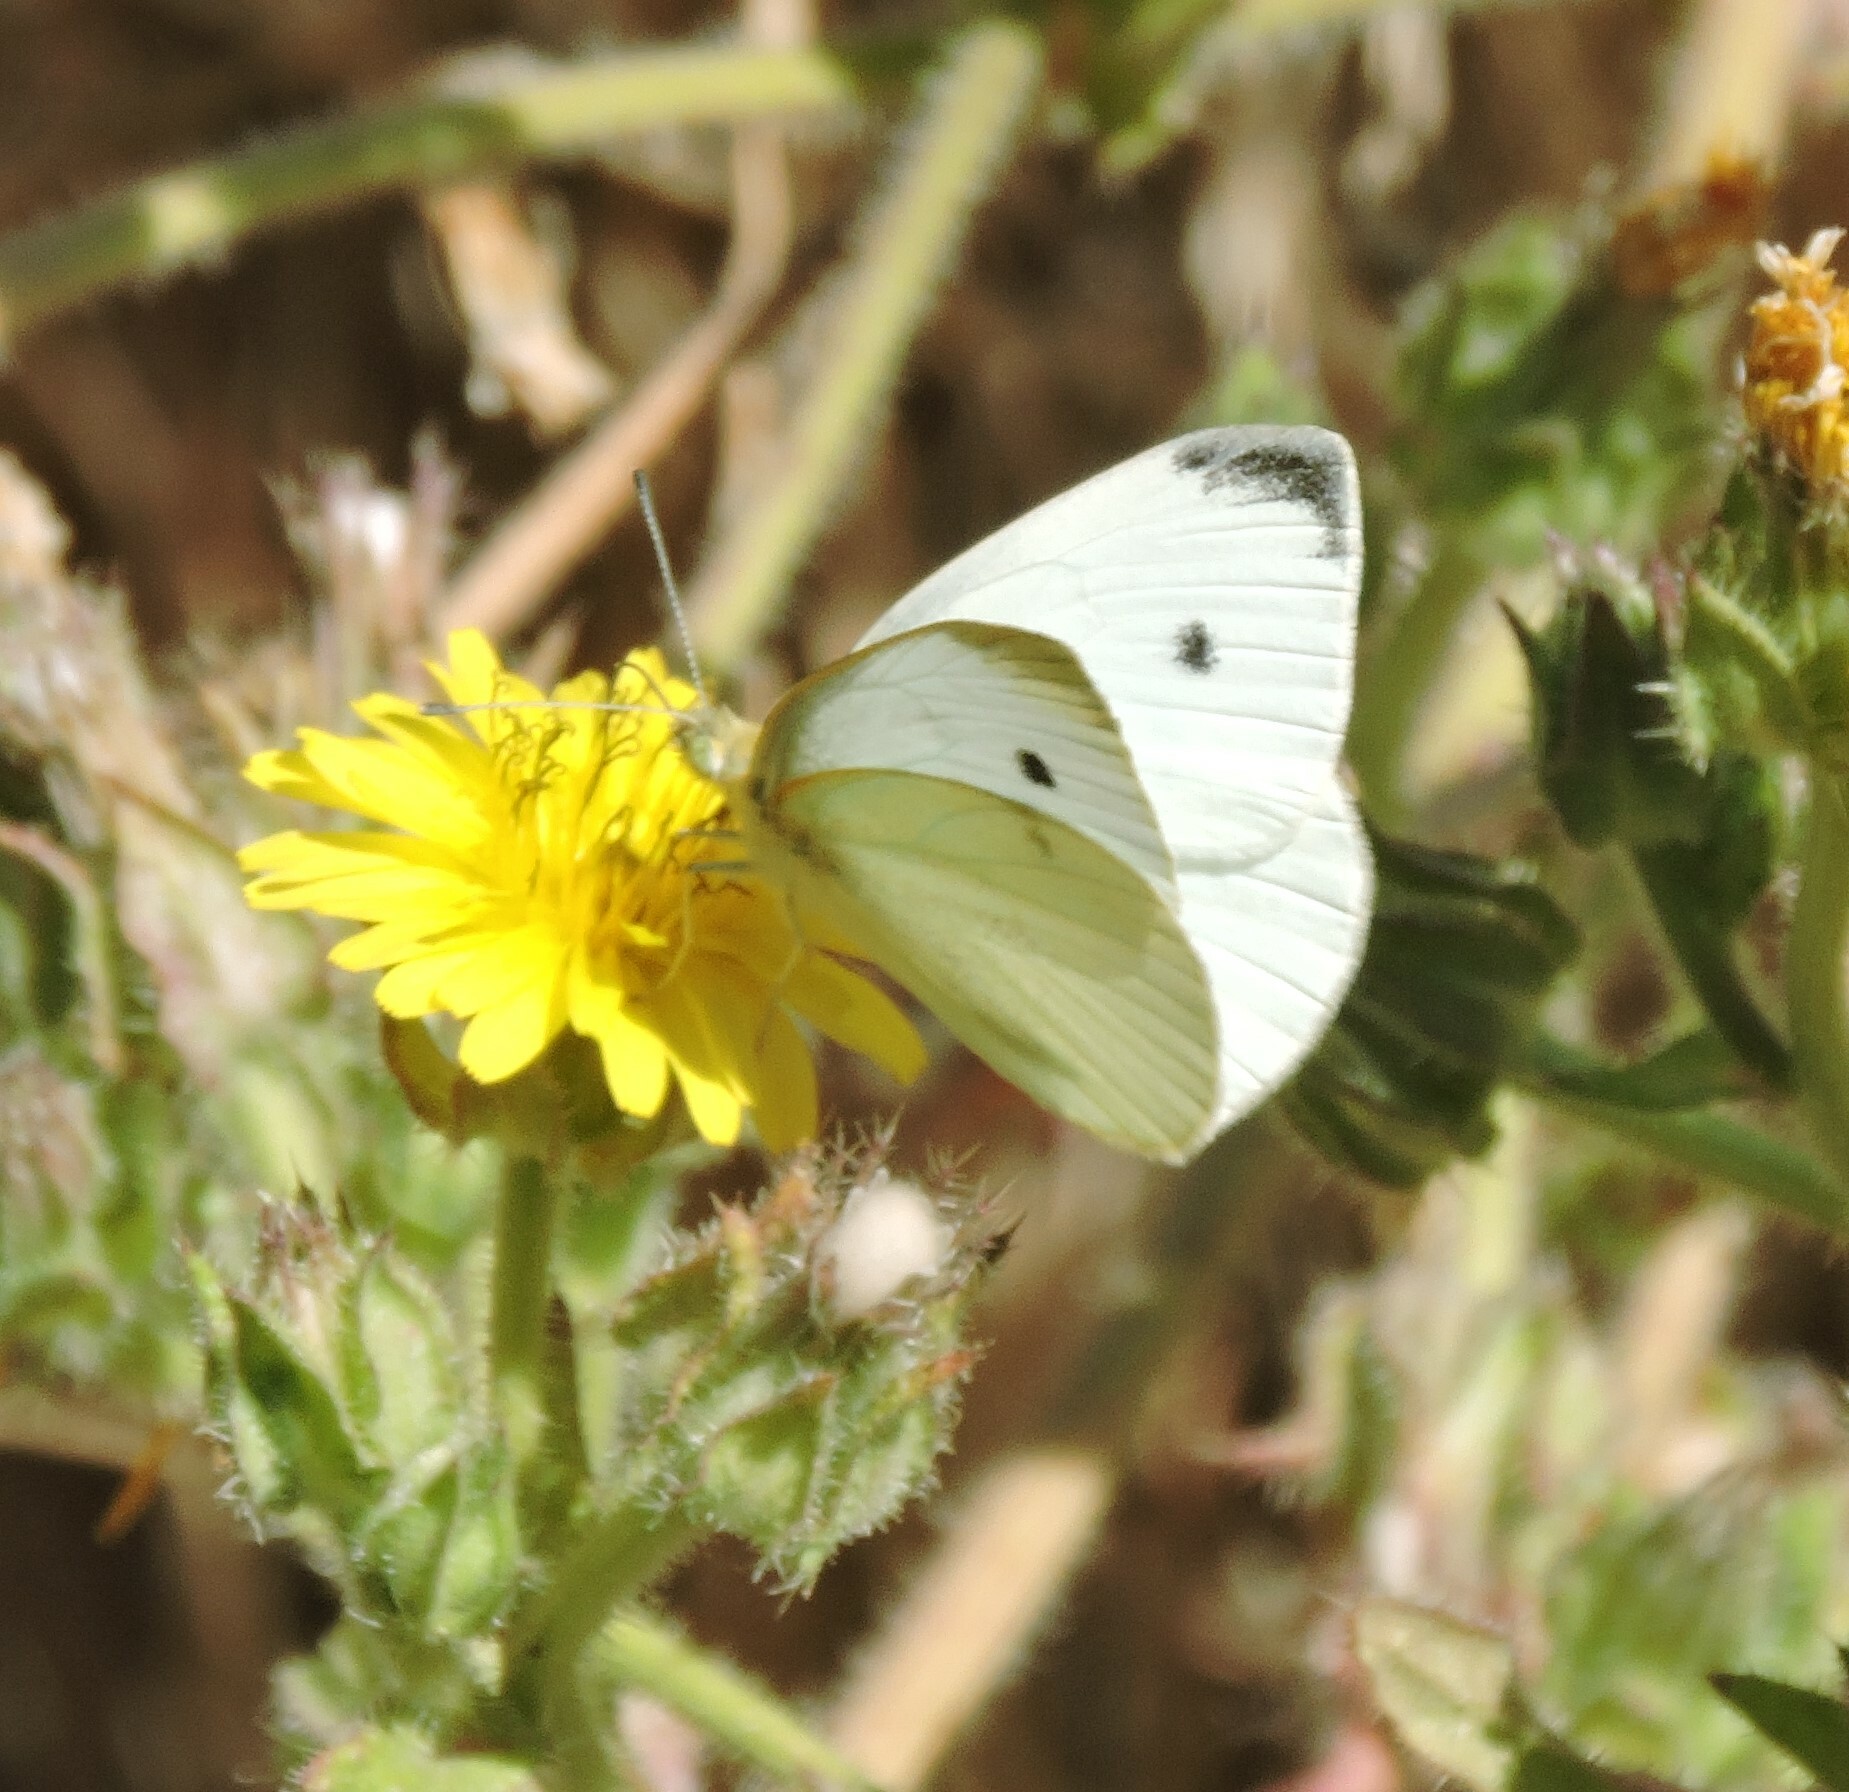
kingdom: Animalia
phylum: Arthropoda
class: Insecta
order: Lepidoptera
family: Pieridae
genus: Pieris
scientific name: Pieris rapae
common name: Small white
